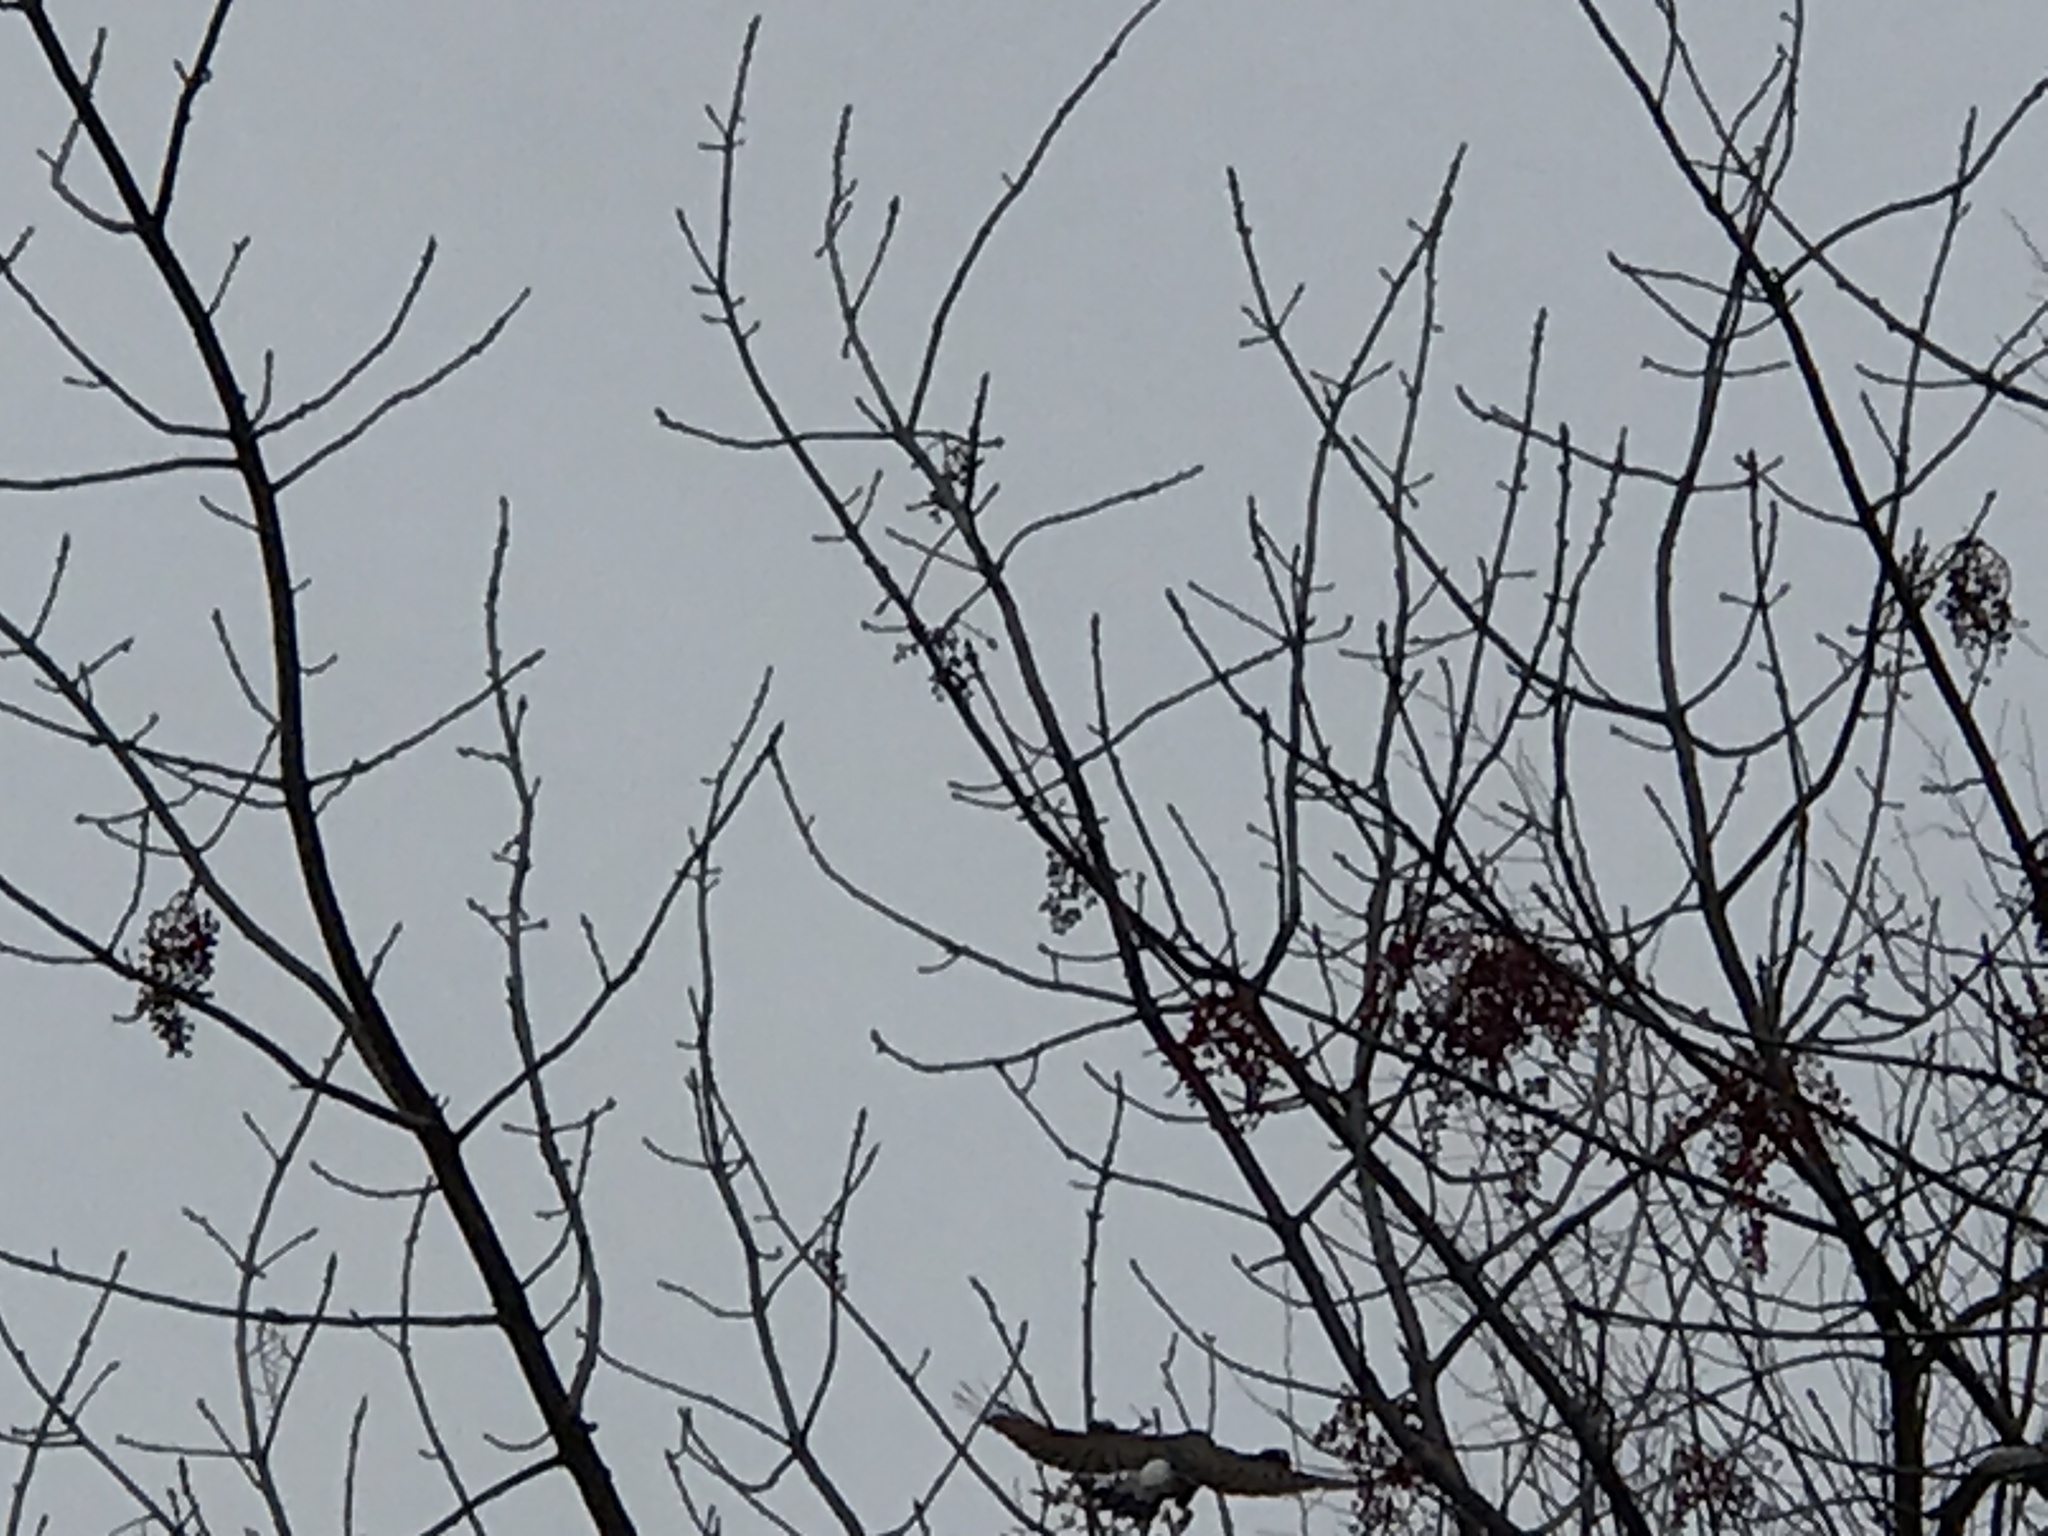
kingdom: Animalia
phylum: Chordata
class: Aves
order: Piciformes
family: Picidae
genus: Colaptes
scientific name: Colaptes auratus
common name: Northern flicker
